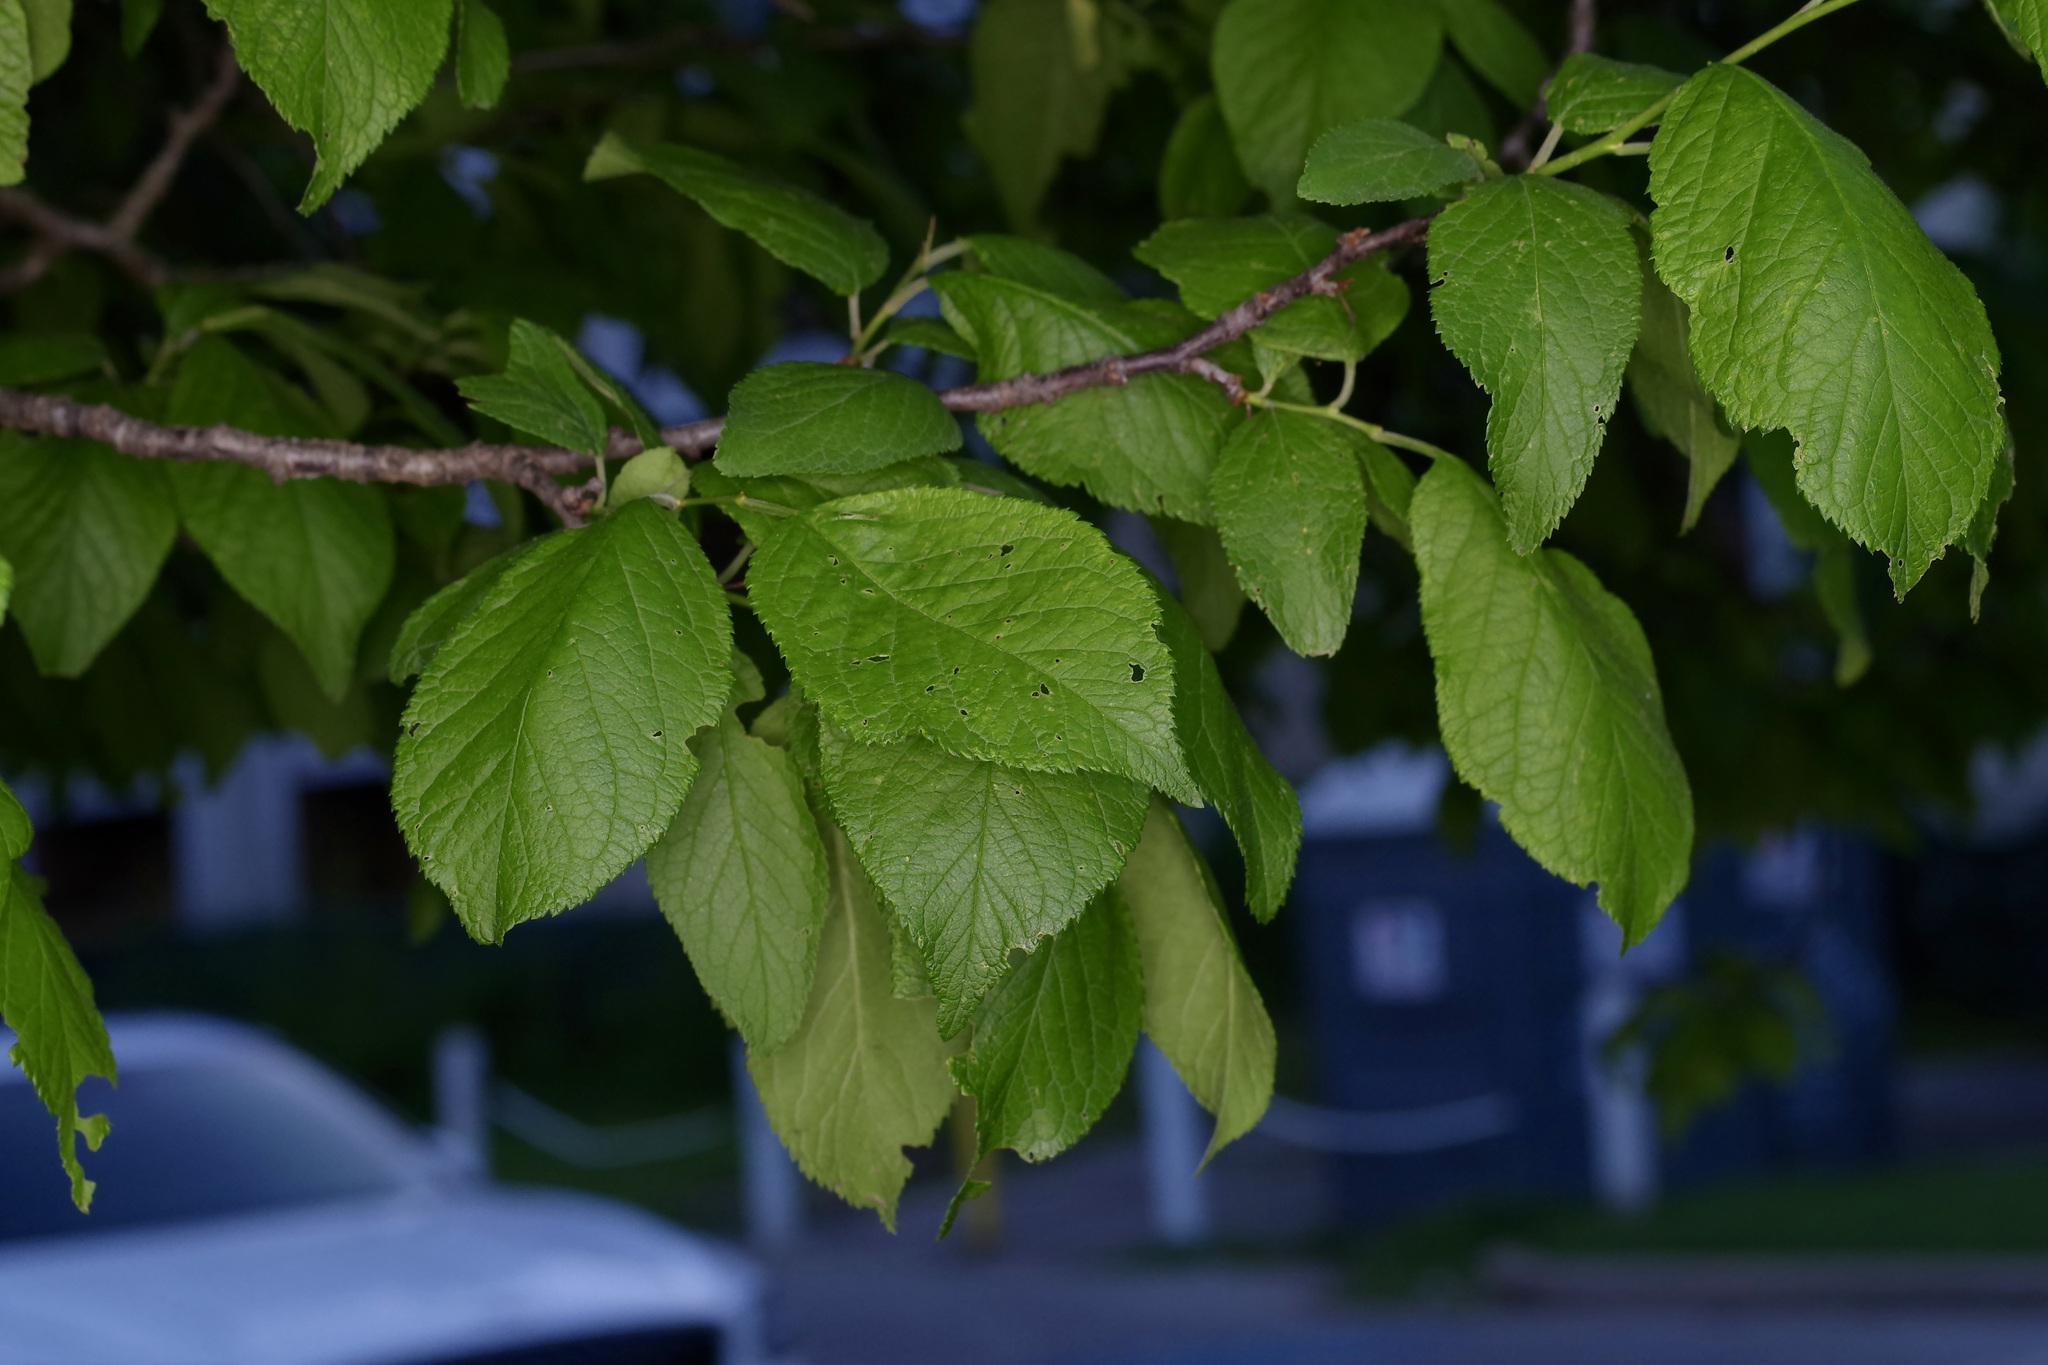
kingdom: Plantae
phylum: Tracheophyta
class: Magnoliopsida
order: Rosales
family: Rosaceae
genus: Prunus
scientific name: Prunus mexicana
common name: Mexican plum
